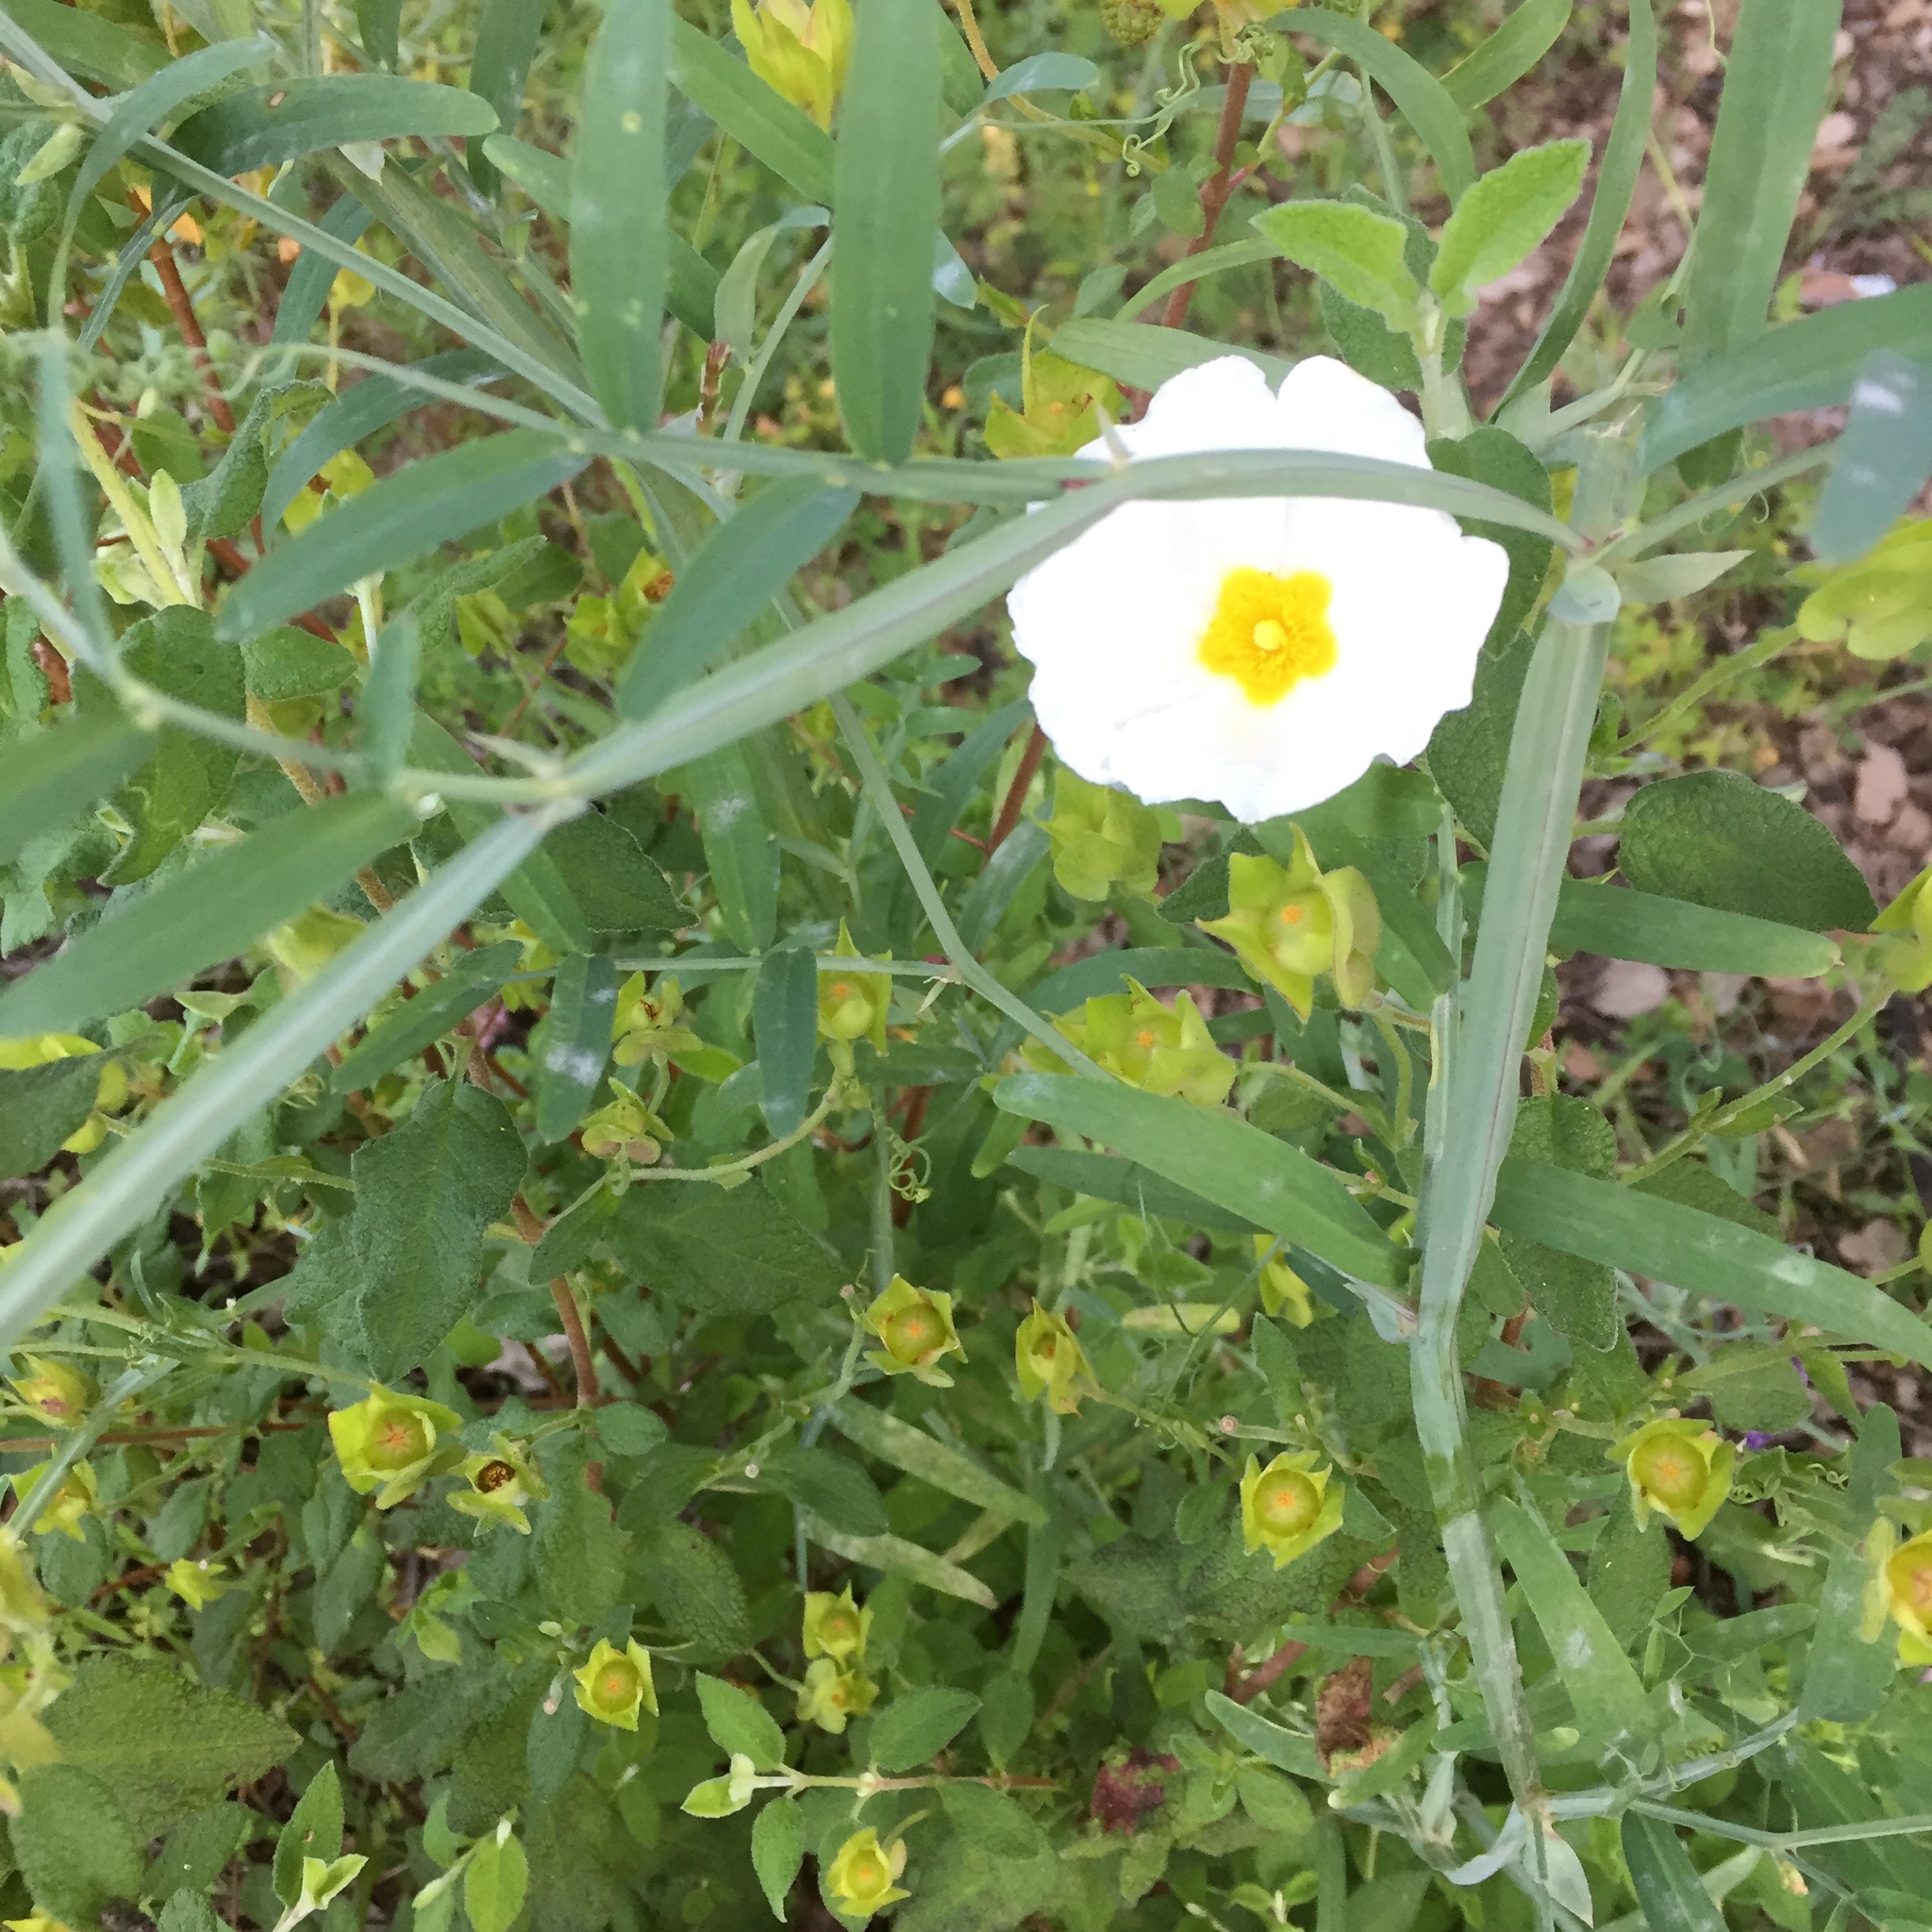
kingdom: Plantae
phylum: Tracheophyta
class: Magnoliopsida
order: Malvales
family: Cistaceae
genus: Cistus
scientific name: Cistus salviifolius
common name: Salvia cistus
